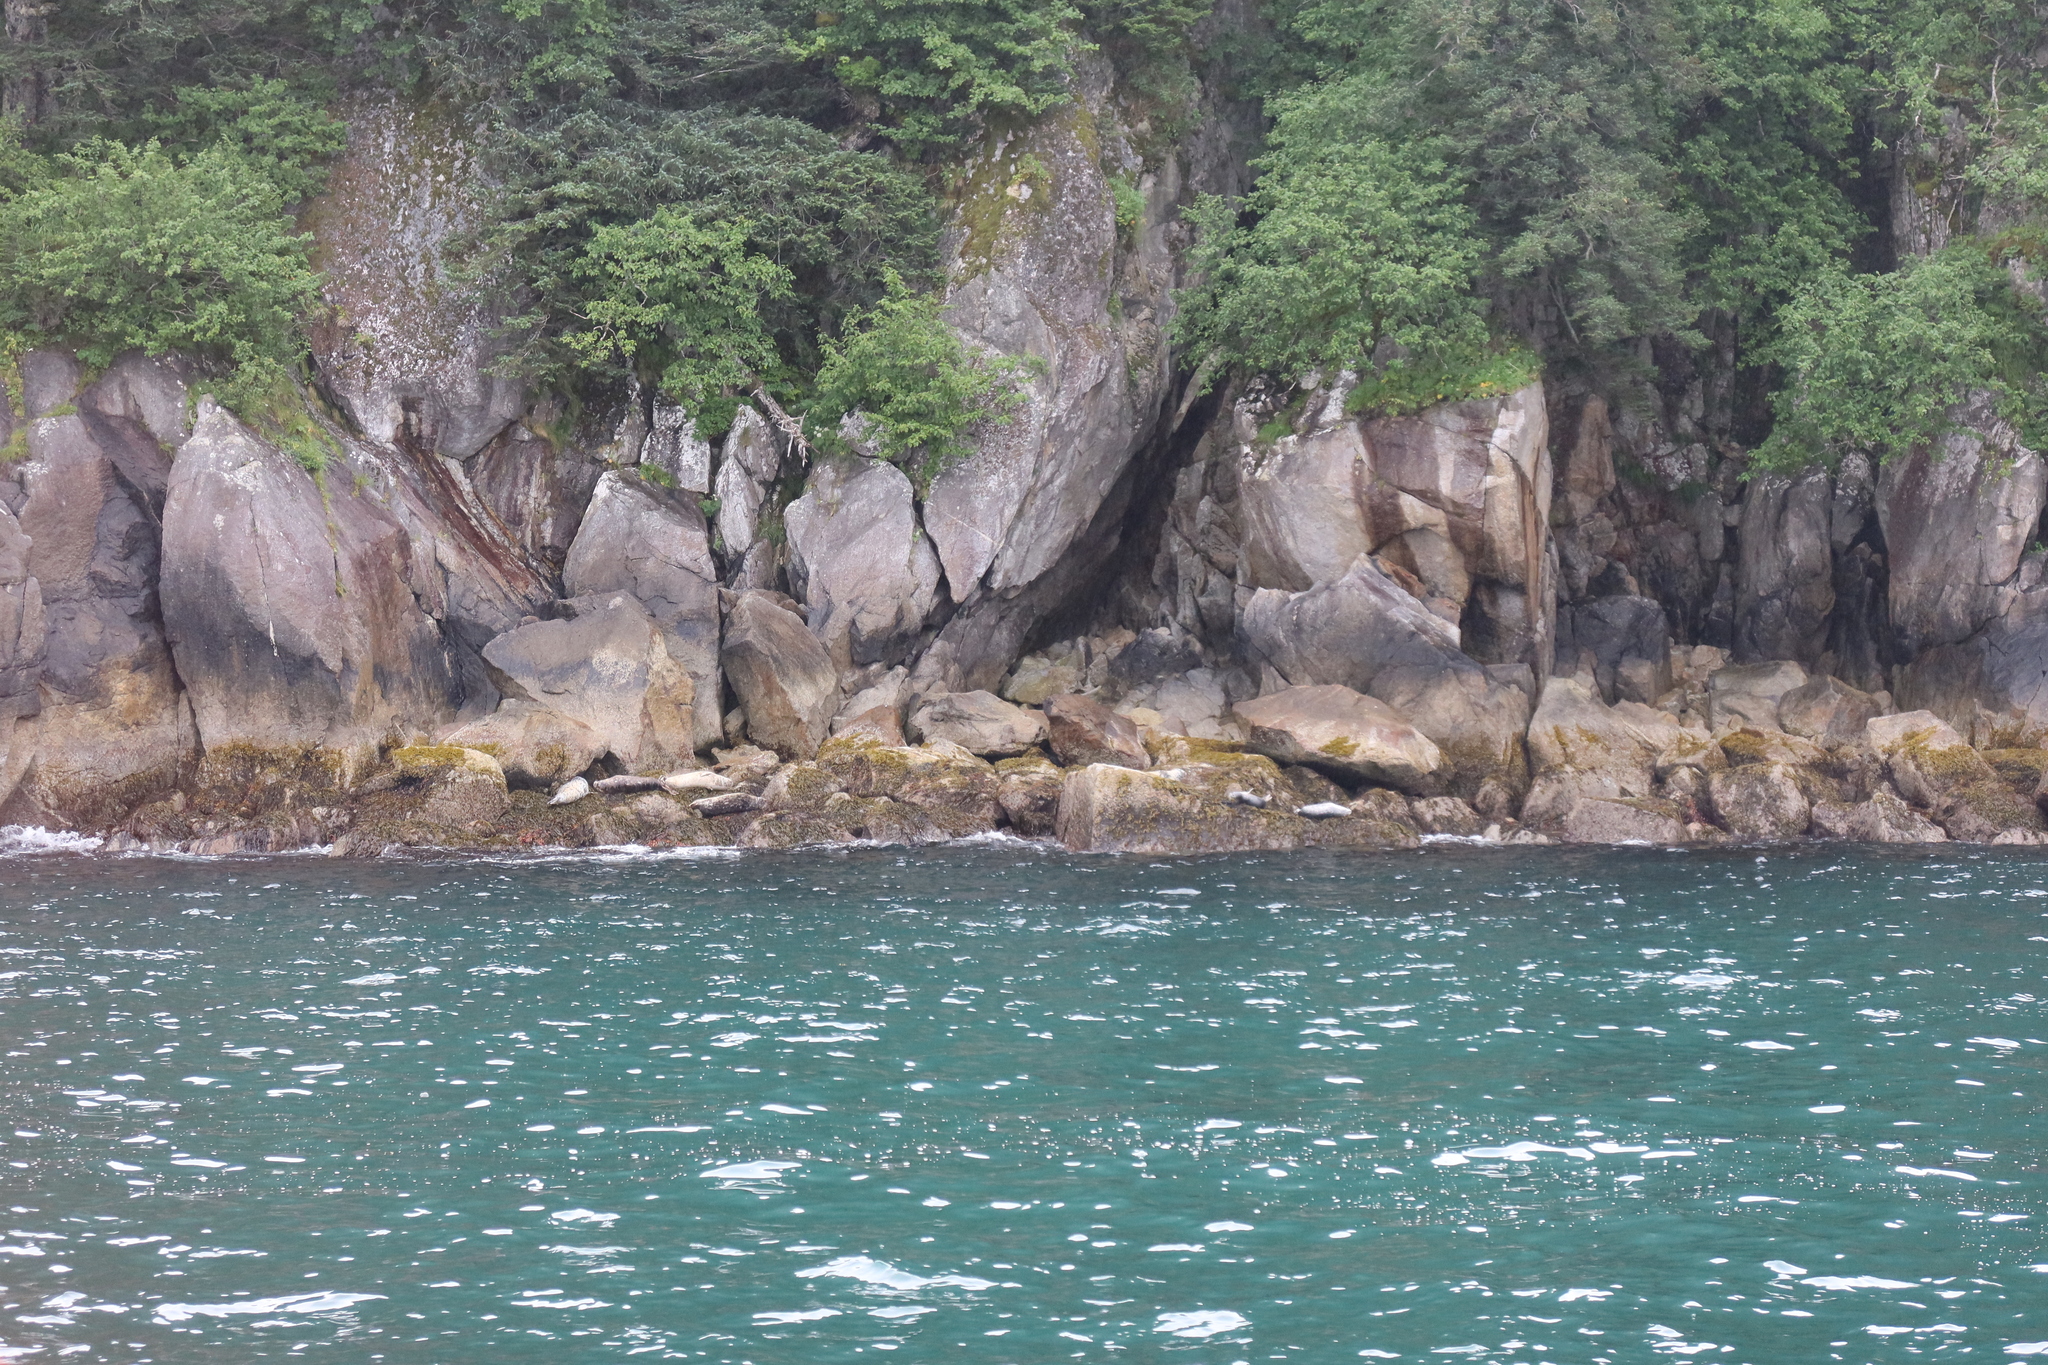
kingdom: Animalia
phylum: Chordata
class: Mammalia
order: Carnivora
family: Phocidae
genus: Phoca
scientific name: Phoca vitulina
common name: Harbor seal
